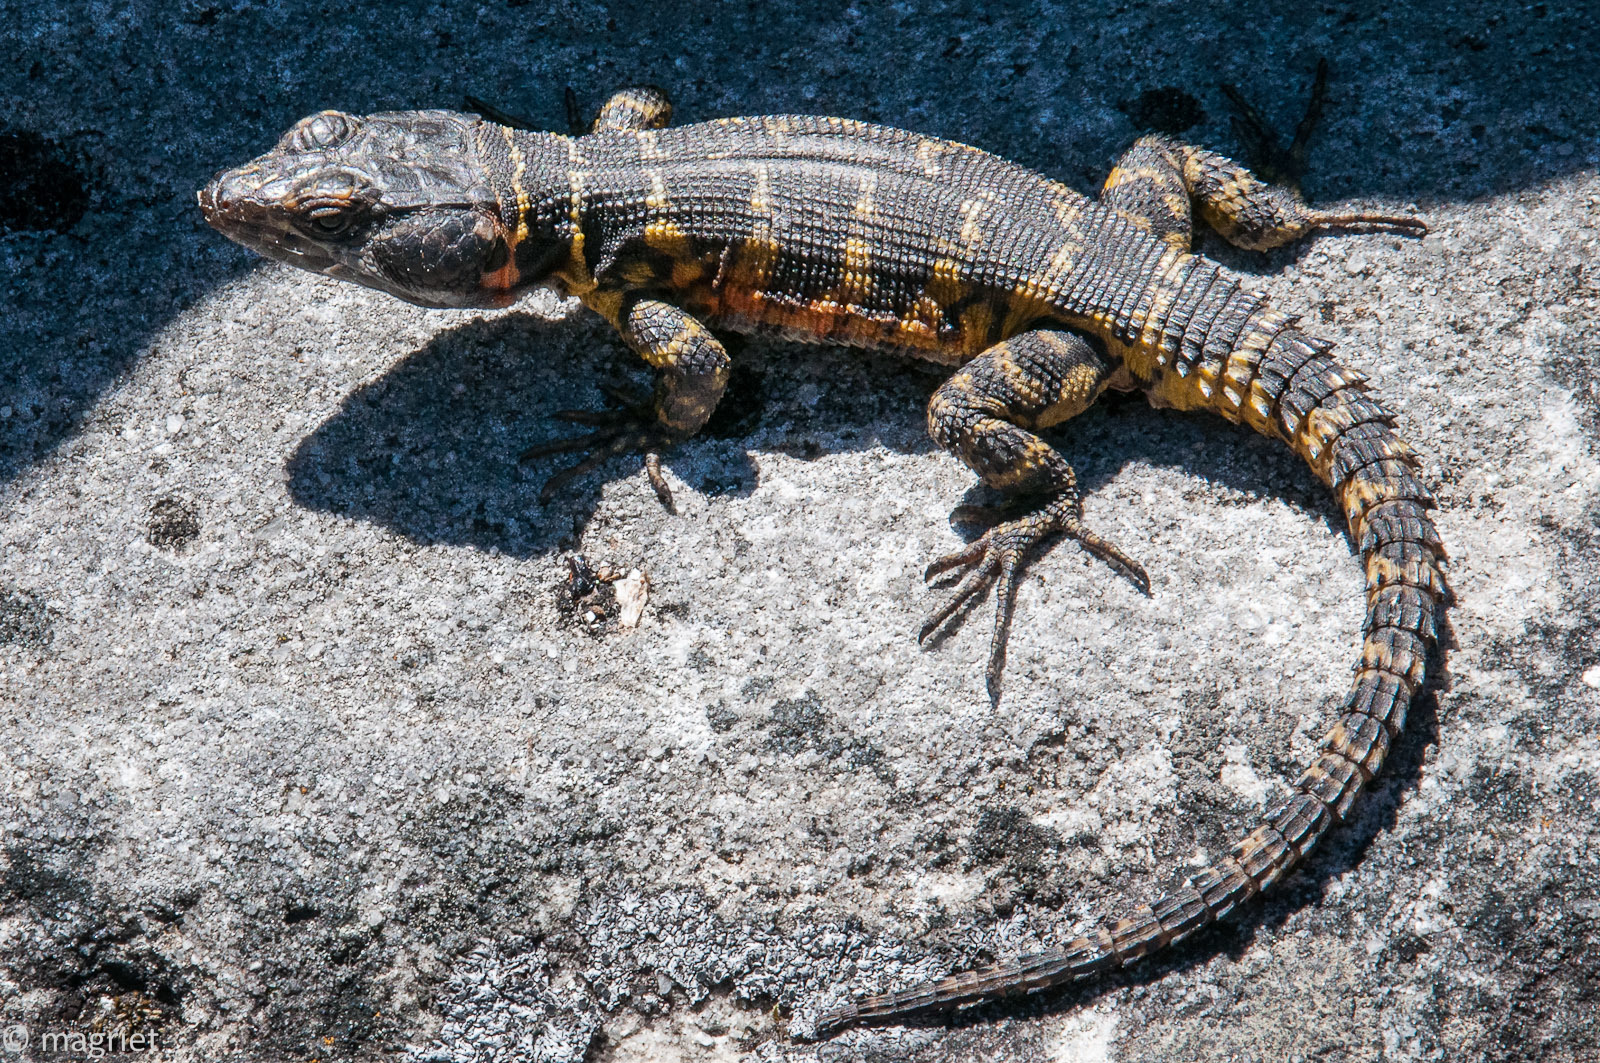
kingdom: Animalia
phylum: Chordata
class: Squamata
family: Cordylidae
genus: Pseudocordylus
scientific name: Pseudocordylus microlepidotus
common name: Cape crag lizard
